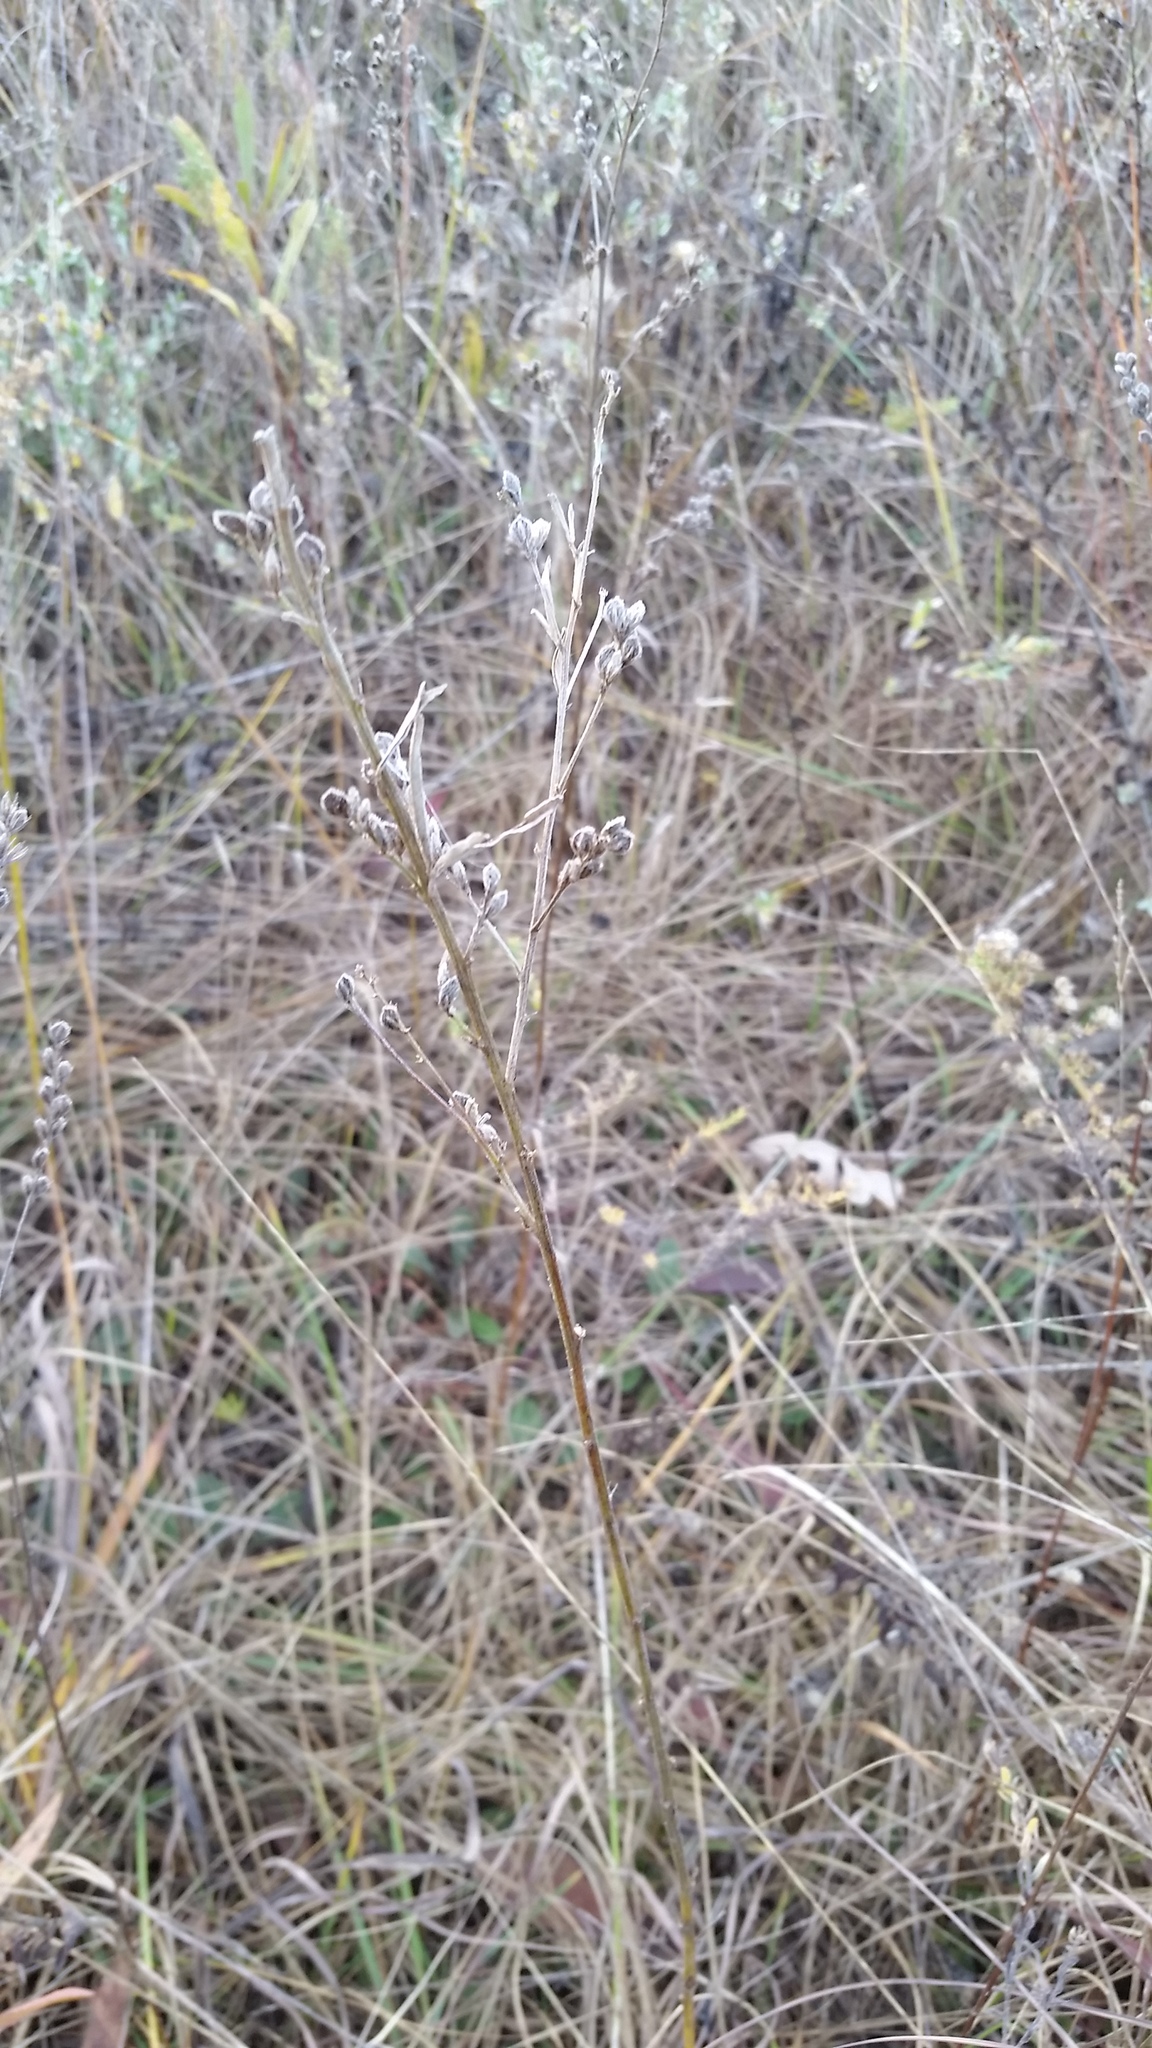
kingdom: Plantae
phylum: Tracheophyta
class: Magnoliopsida
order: Fabales
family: Fabaceae
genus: Lespedeza
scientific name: Lespedeza leptostachya
